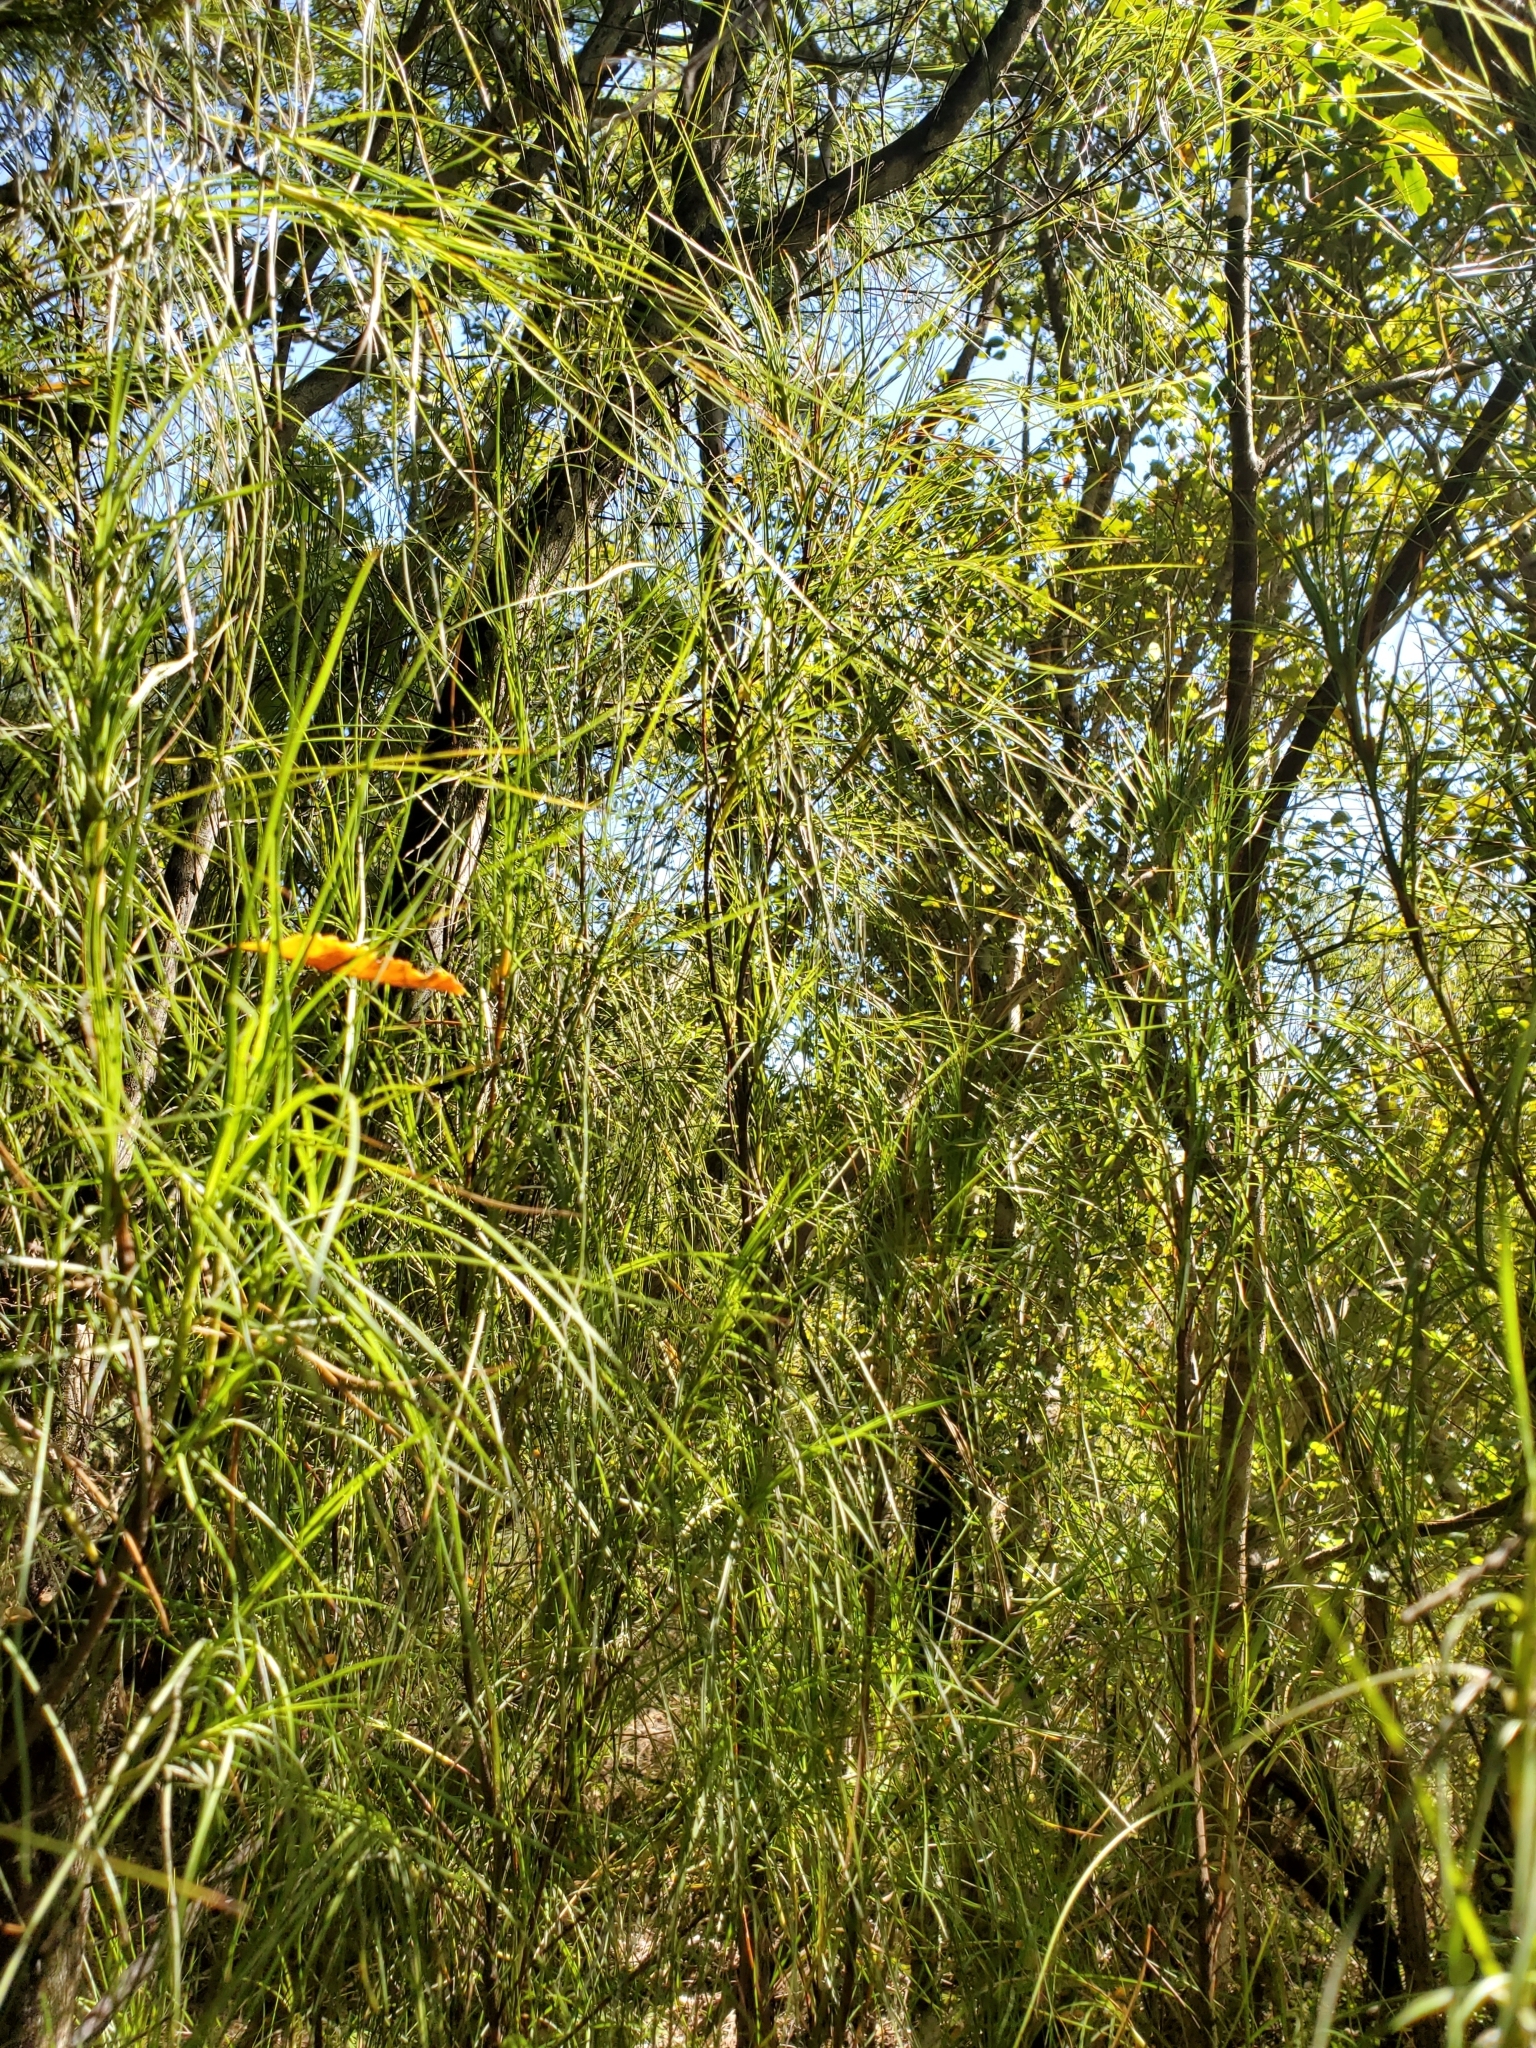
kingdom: Plantae
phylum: Tracheophyta
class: Magnoliopsida
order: Ericales
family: Ericaceae
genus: Dracophyllum
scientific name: Dracophyllum filifolium
